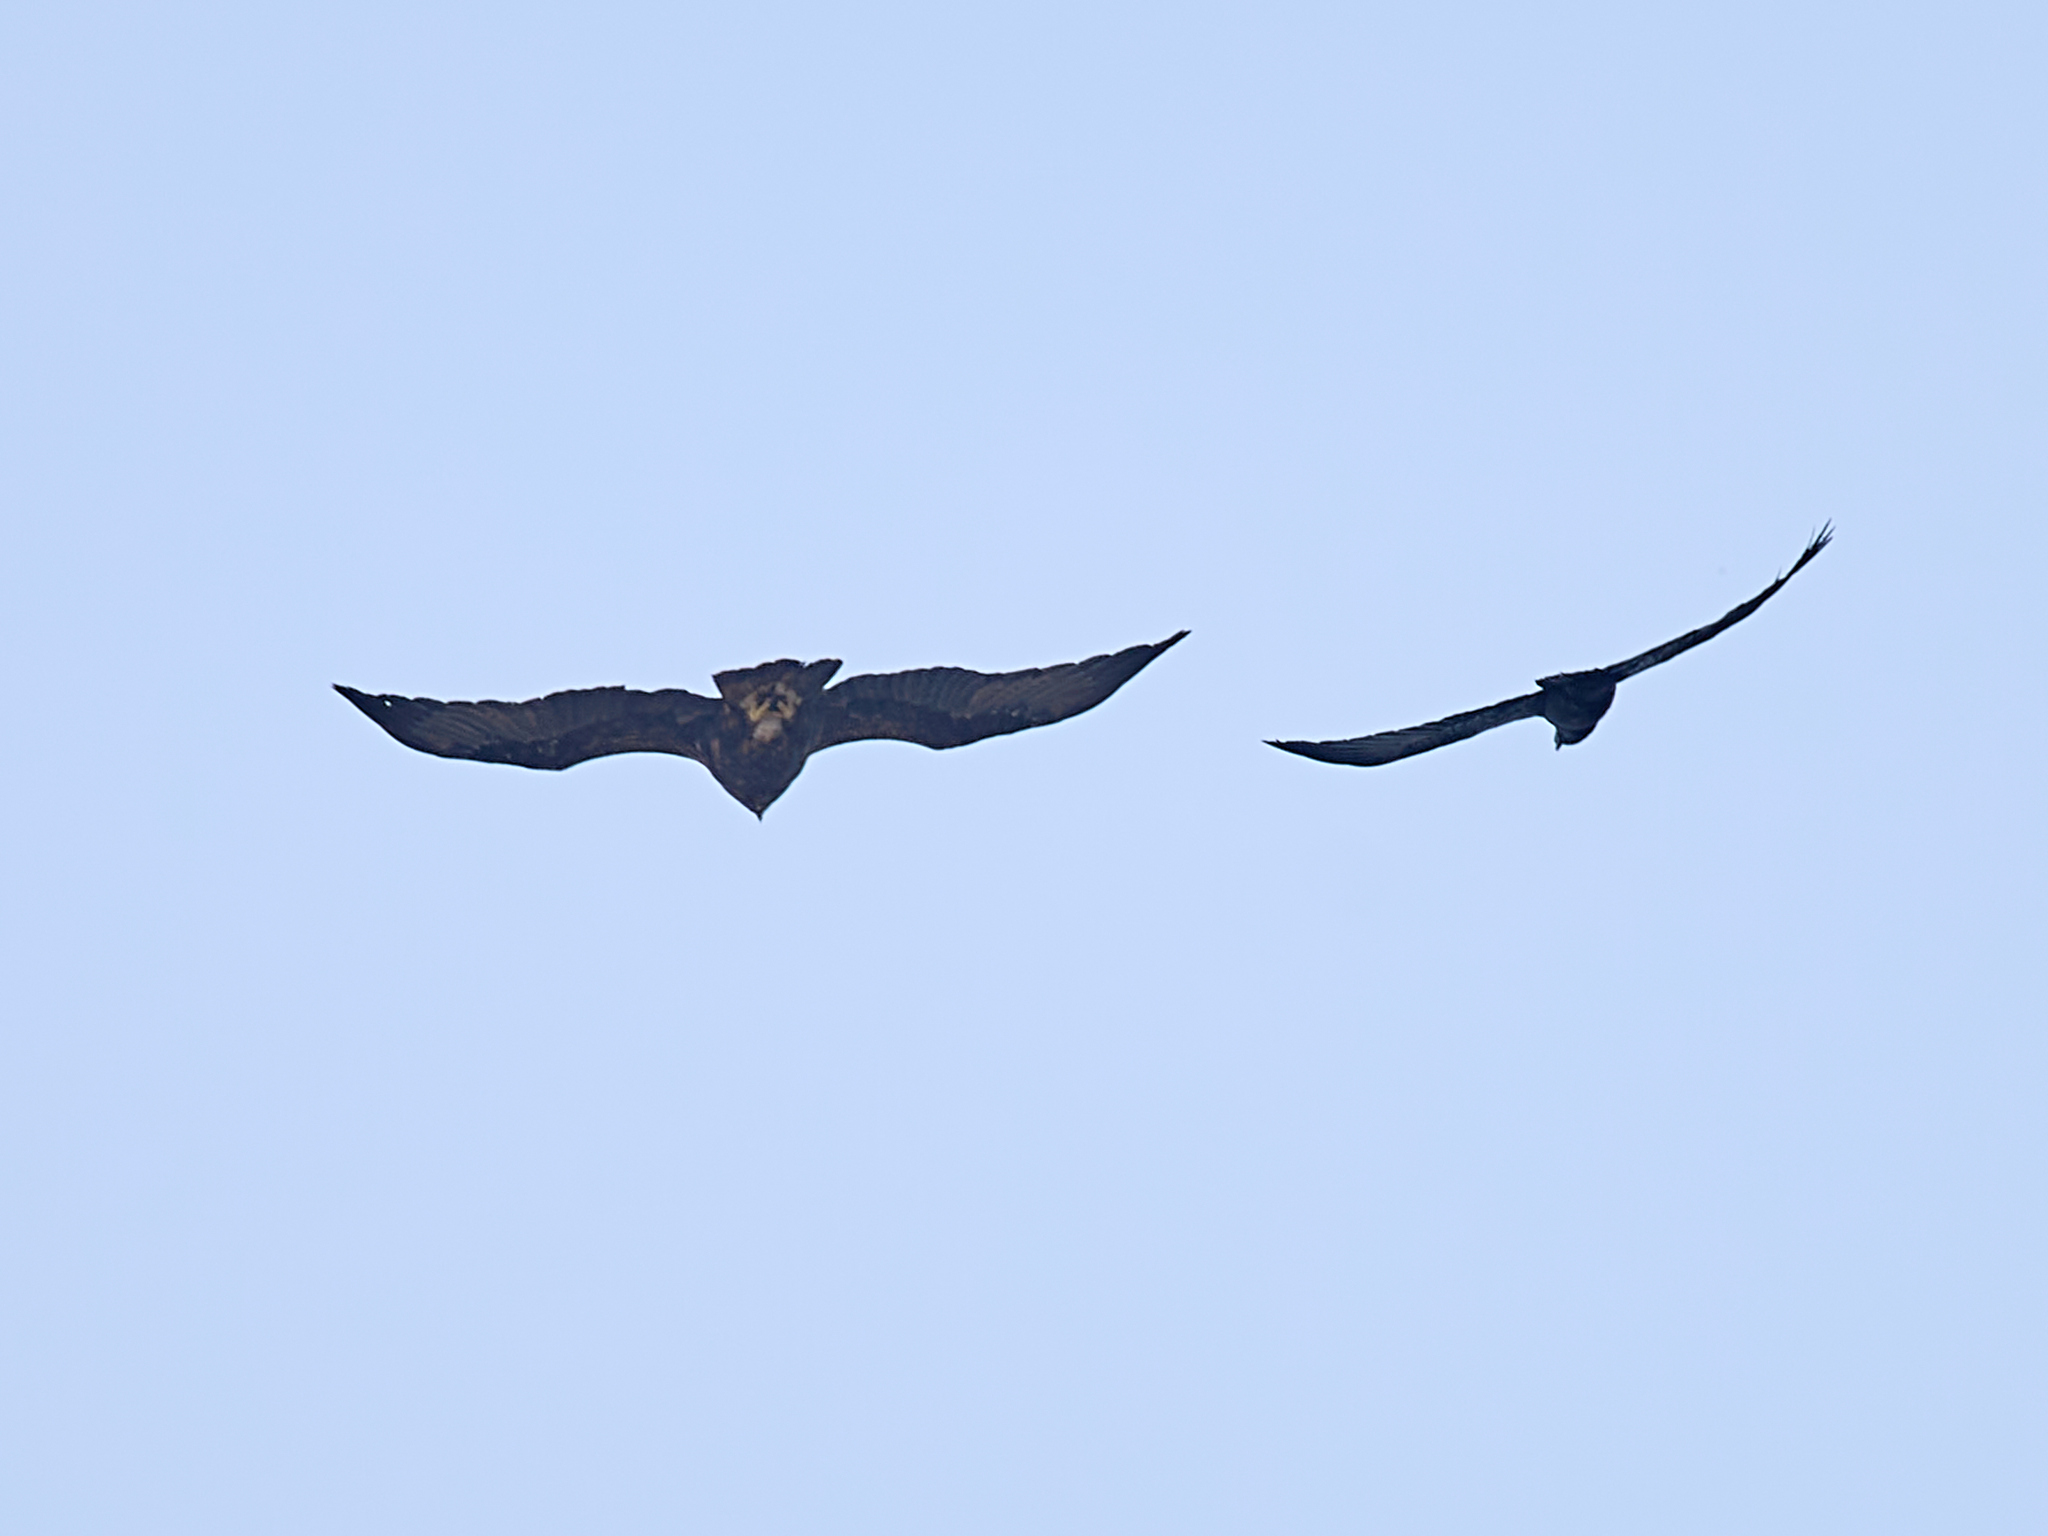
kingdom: Animalia
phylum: Chordata
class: Aves
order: Accipitriformes
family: Accipitridae
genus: Aquila
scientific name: Aquila heliaca
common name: Eastern imperial eagle
